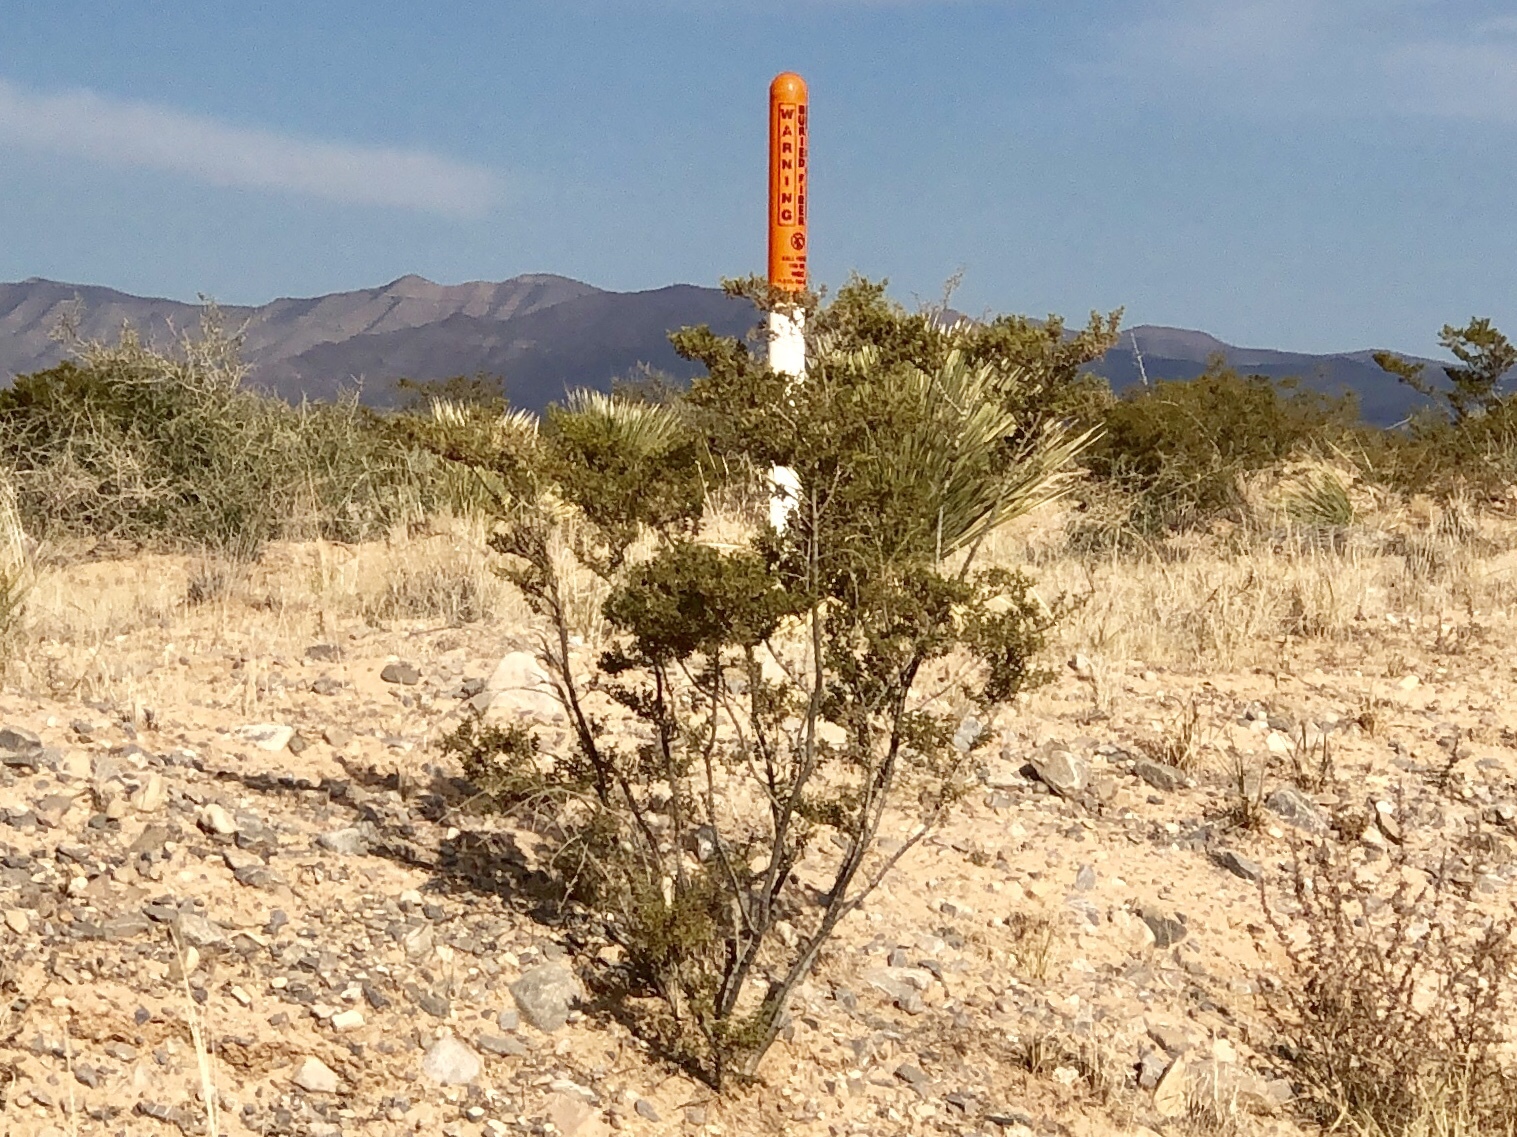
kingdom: Plantae
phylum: Tracheophyta
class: Magnoliopsida
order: Zygophyllales
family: Zygophyllaceae
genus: Larrea
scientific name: Larrea tridentata
